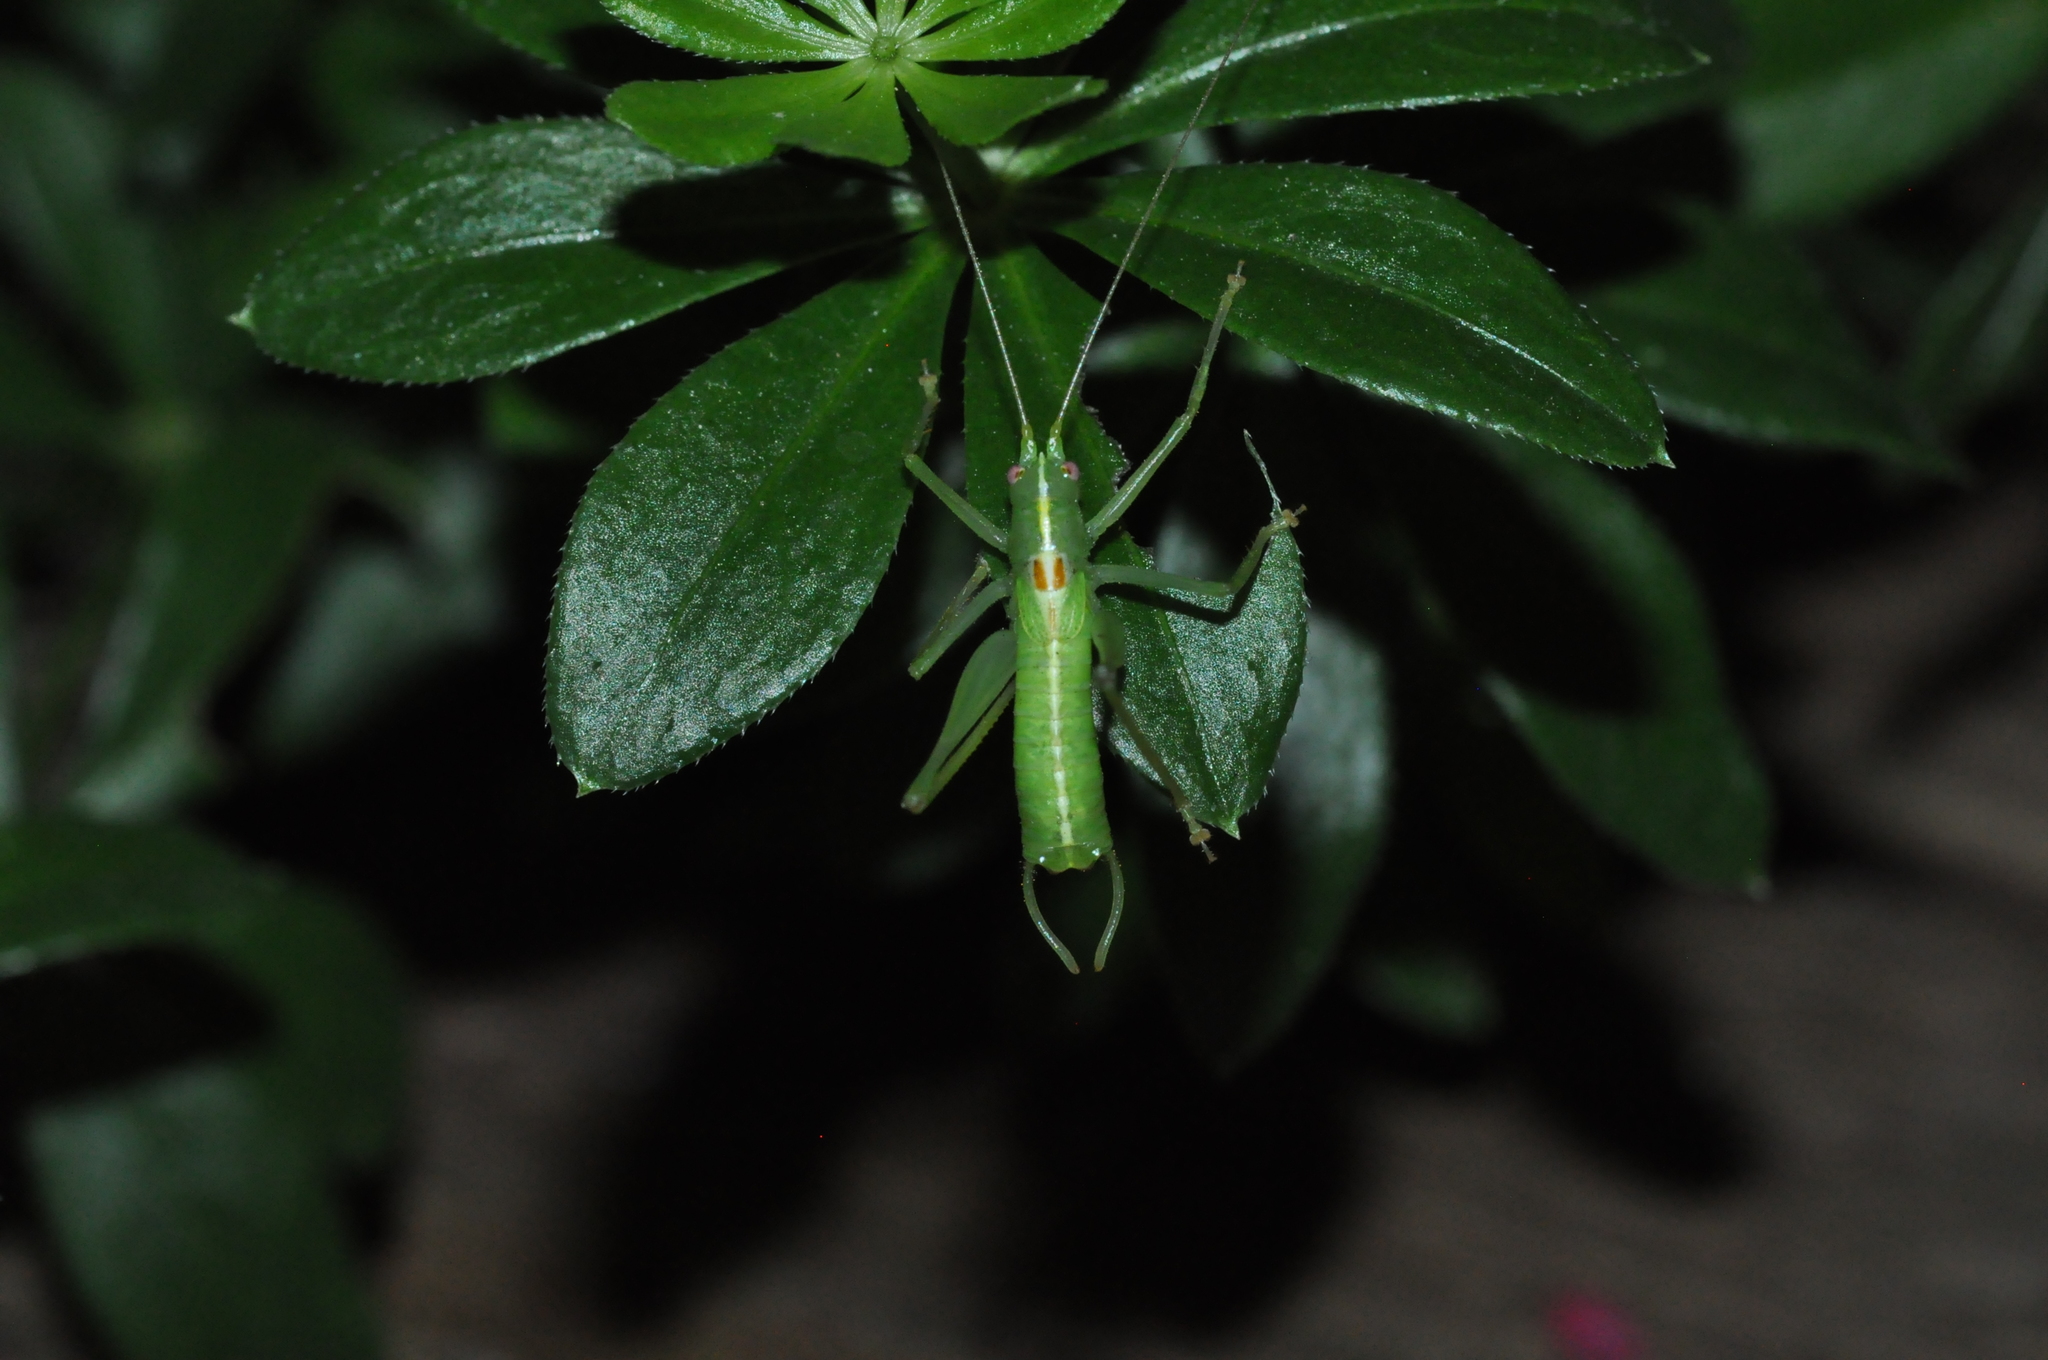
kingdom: Animalia
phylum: Arthropoda
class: Insecta
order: Orthoptera
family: Tettigoniidae
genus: Meconema
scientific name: Meconema meridionale
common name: Southern oak bush-cricket
